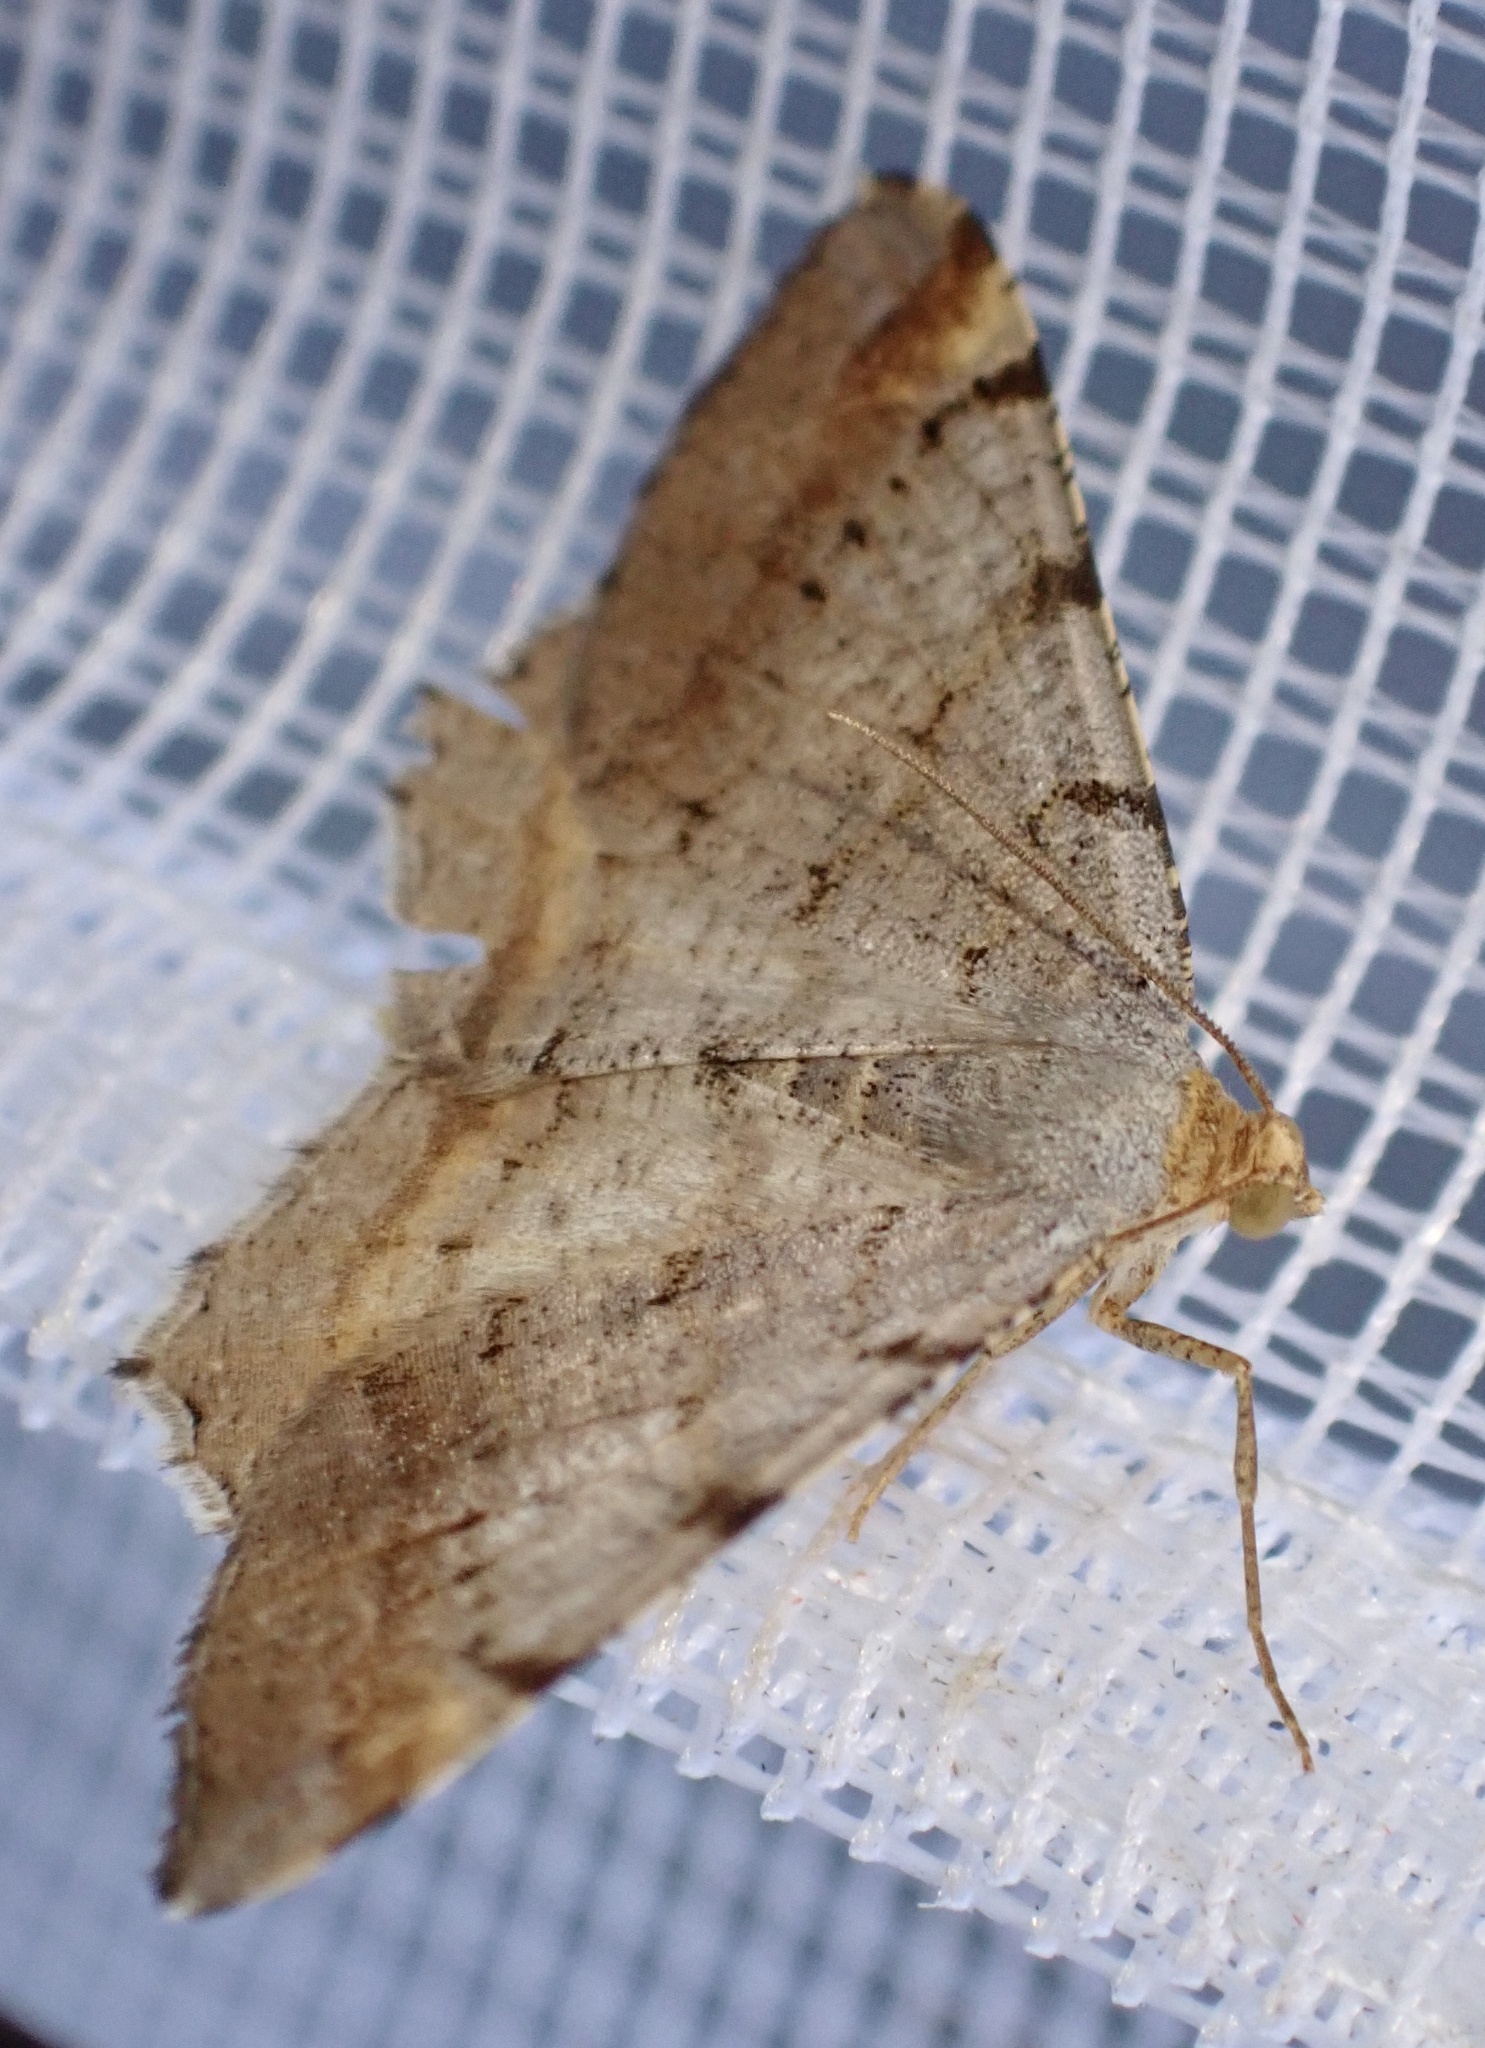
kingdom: Animalia
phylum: Arthropoda
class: Insecta
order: Lepidoptera
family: Geometridae
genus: Macaria
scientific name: Macaria liturata
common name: Tawny-barred angle
